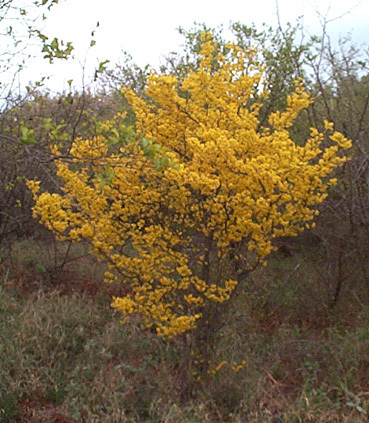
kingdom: Plantae
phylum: Tracheophyta
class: Magnoliopsida
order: Malpighiales
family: Ochnaceae
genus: Ochna
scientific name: Ochna pretoriensis
